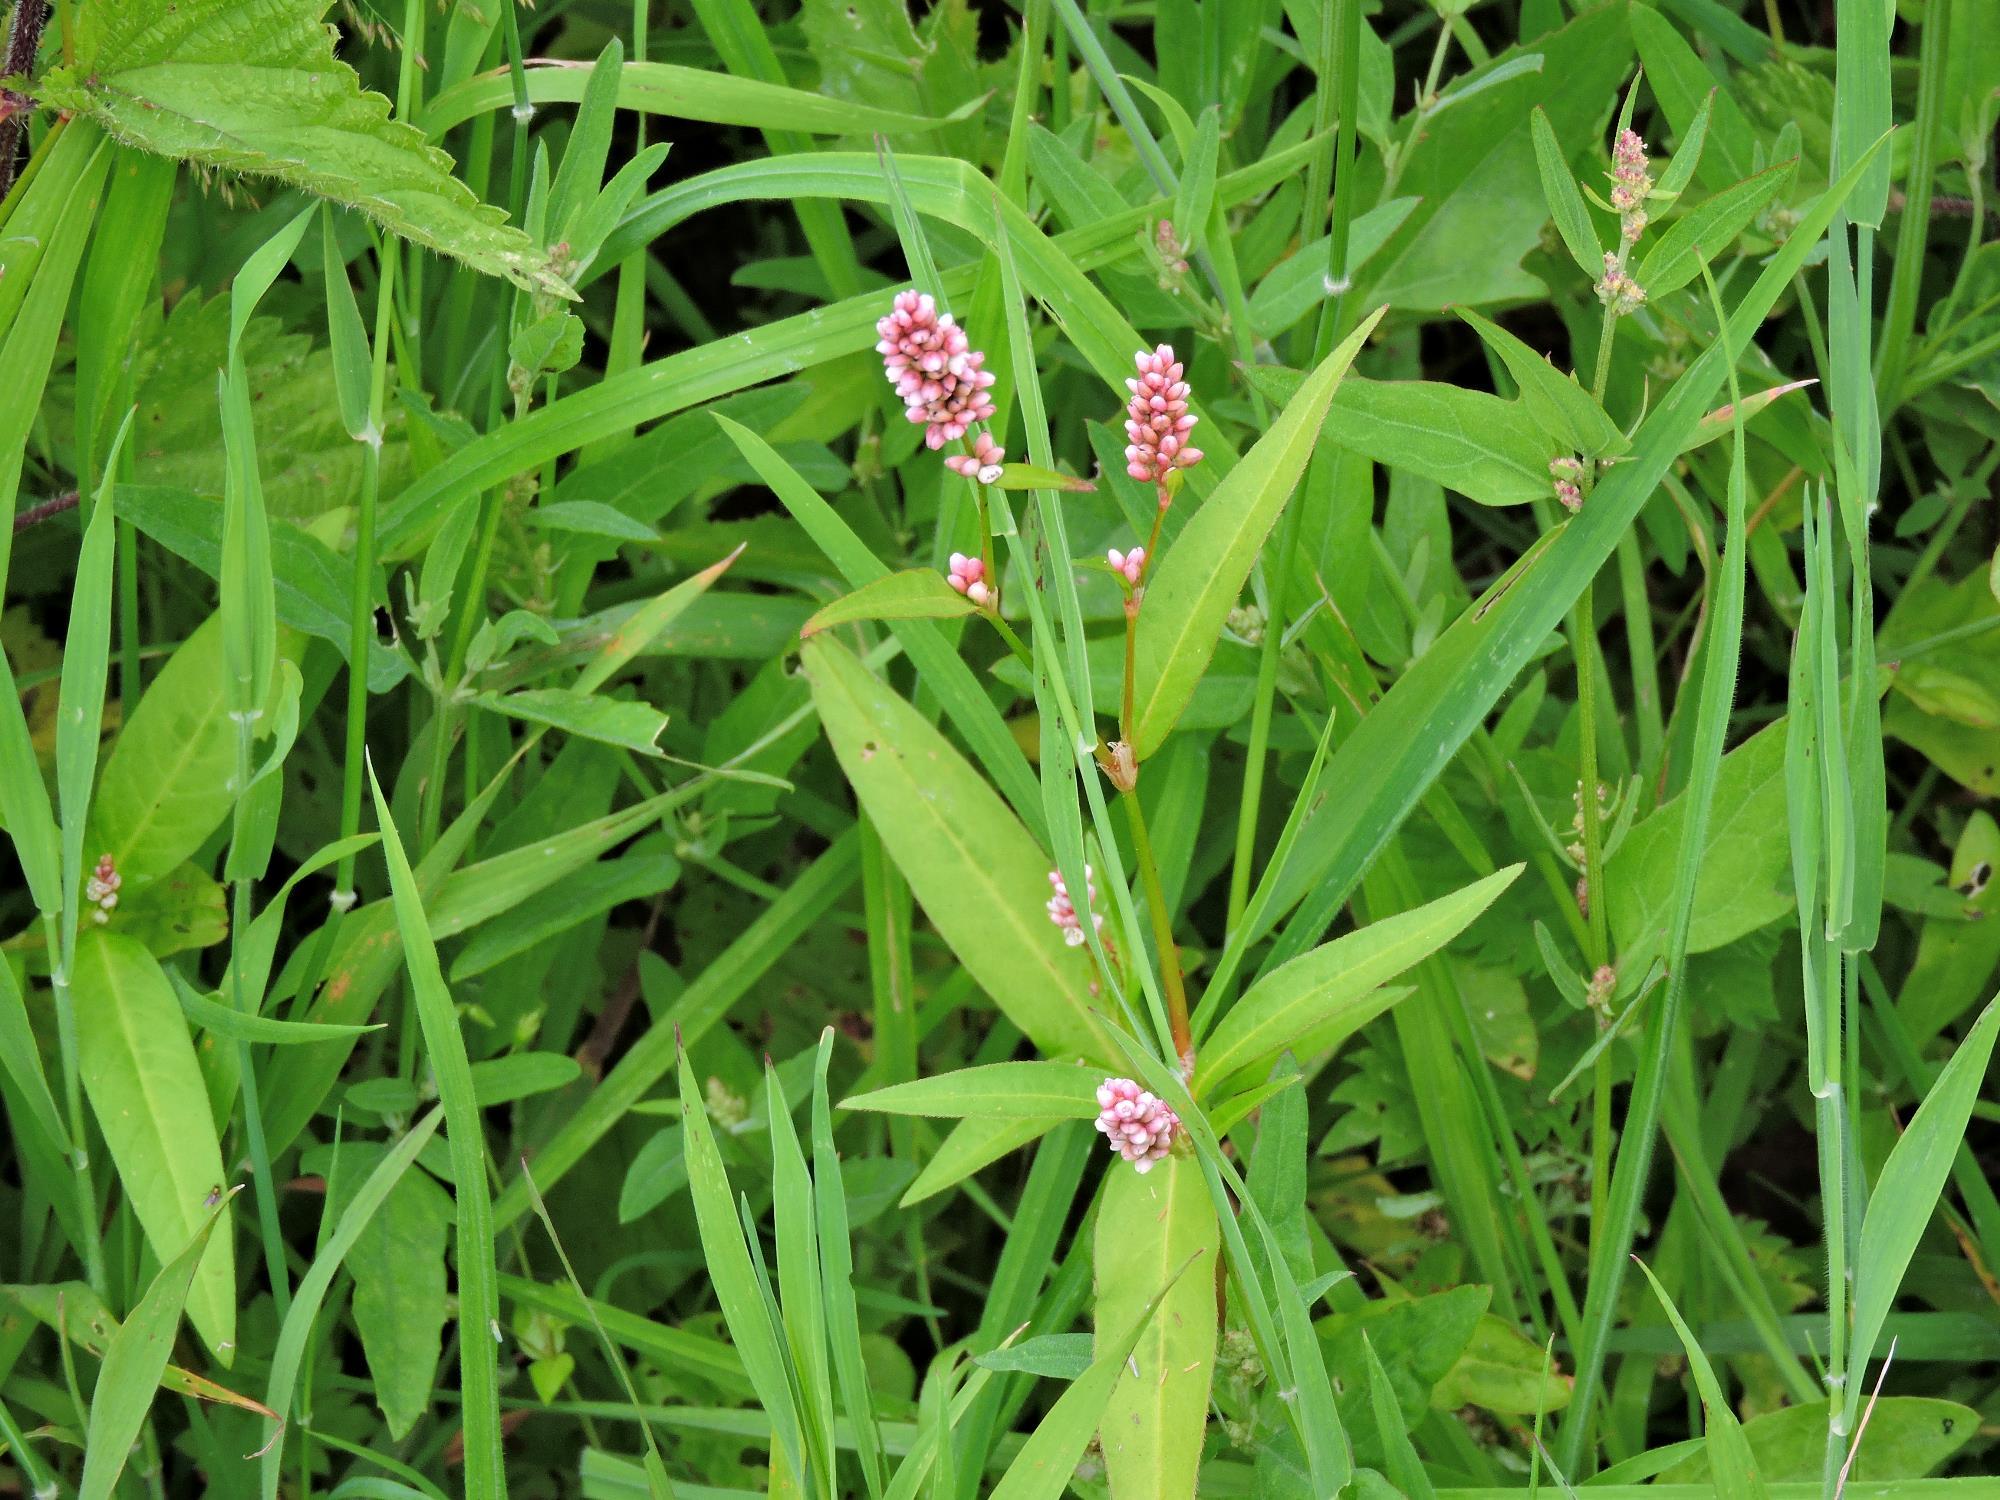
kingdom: Plantae
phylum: Tracheophyta
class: Magnoliopsida
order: Caryophyllales
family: Polygonaceae
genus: Persicaria
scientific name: Persicaria maculosa
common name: Redshank
